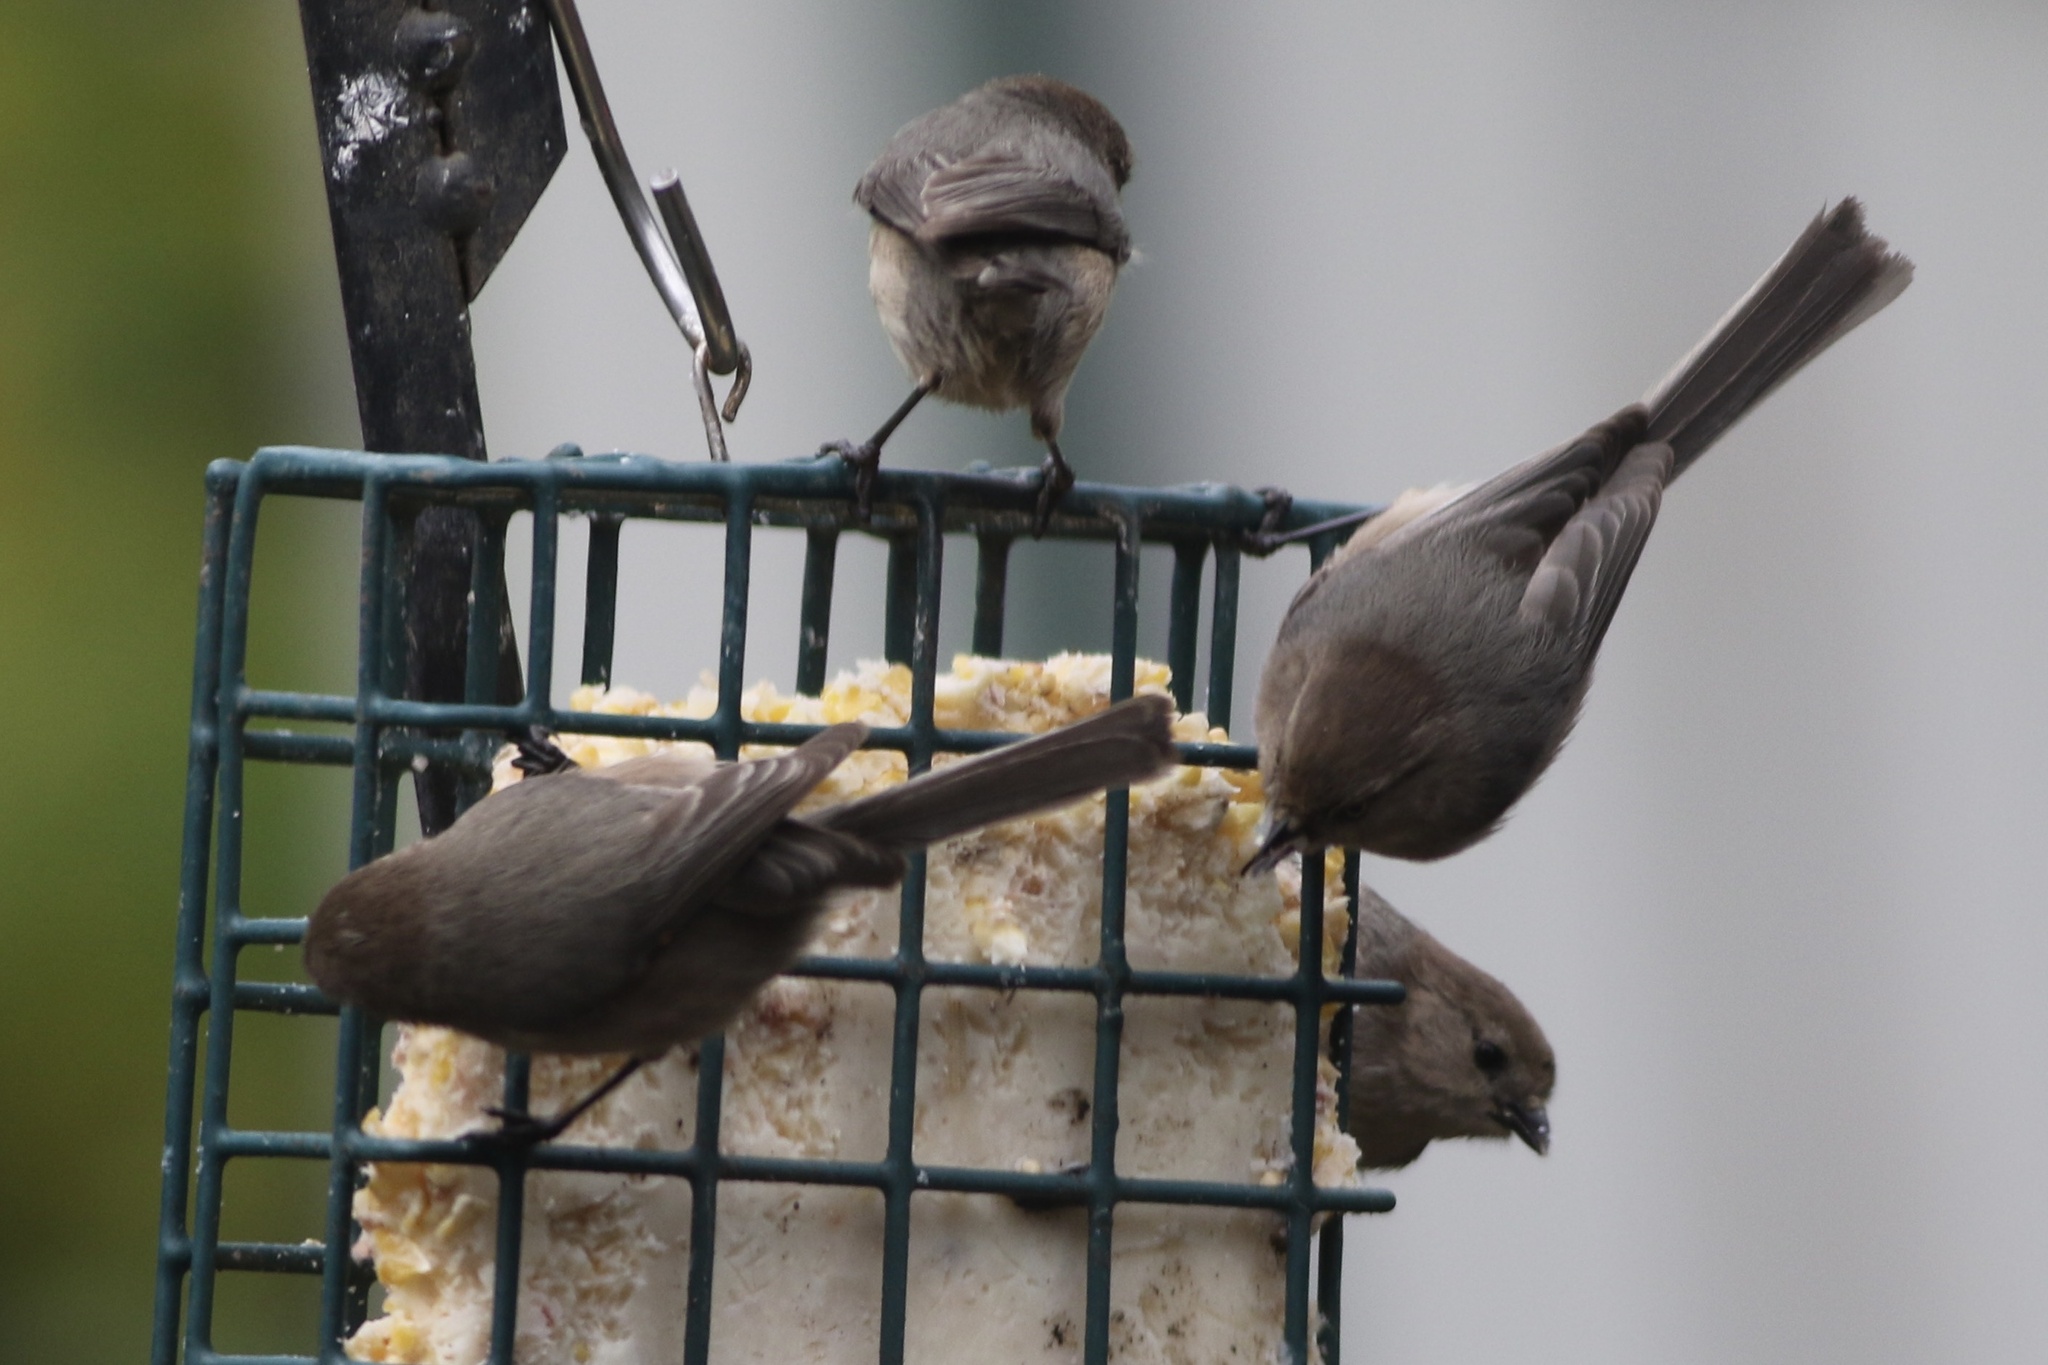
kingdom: Animalia
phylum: Chordata
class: Aves
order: Passeriformes
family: Aegithalidae
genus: Psaltriparus
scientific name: Psaltriparus minimus
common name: American bushtit
